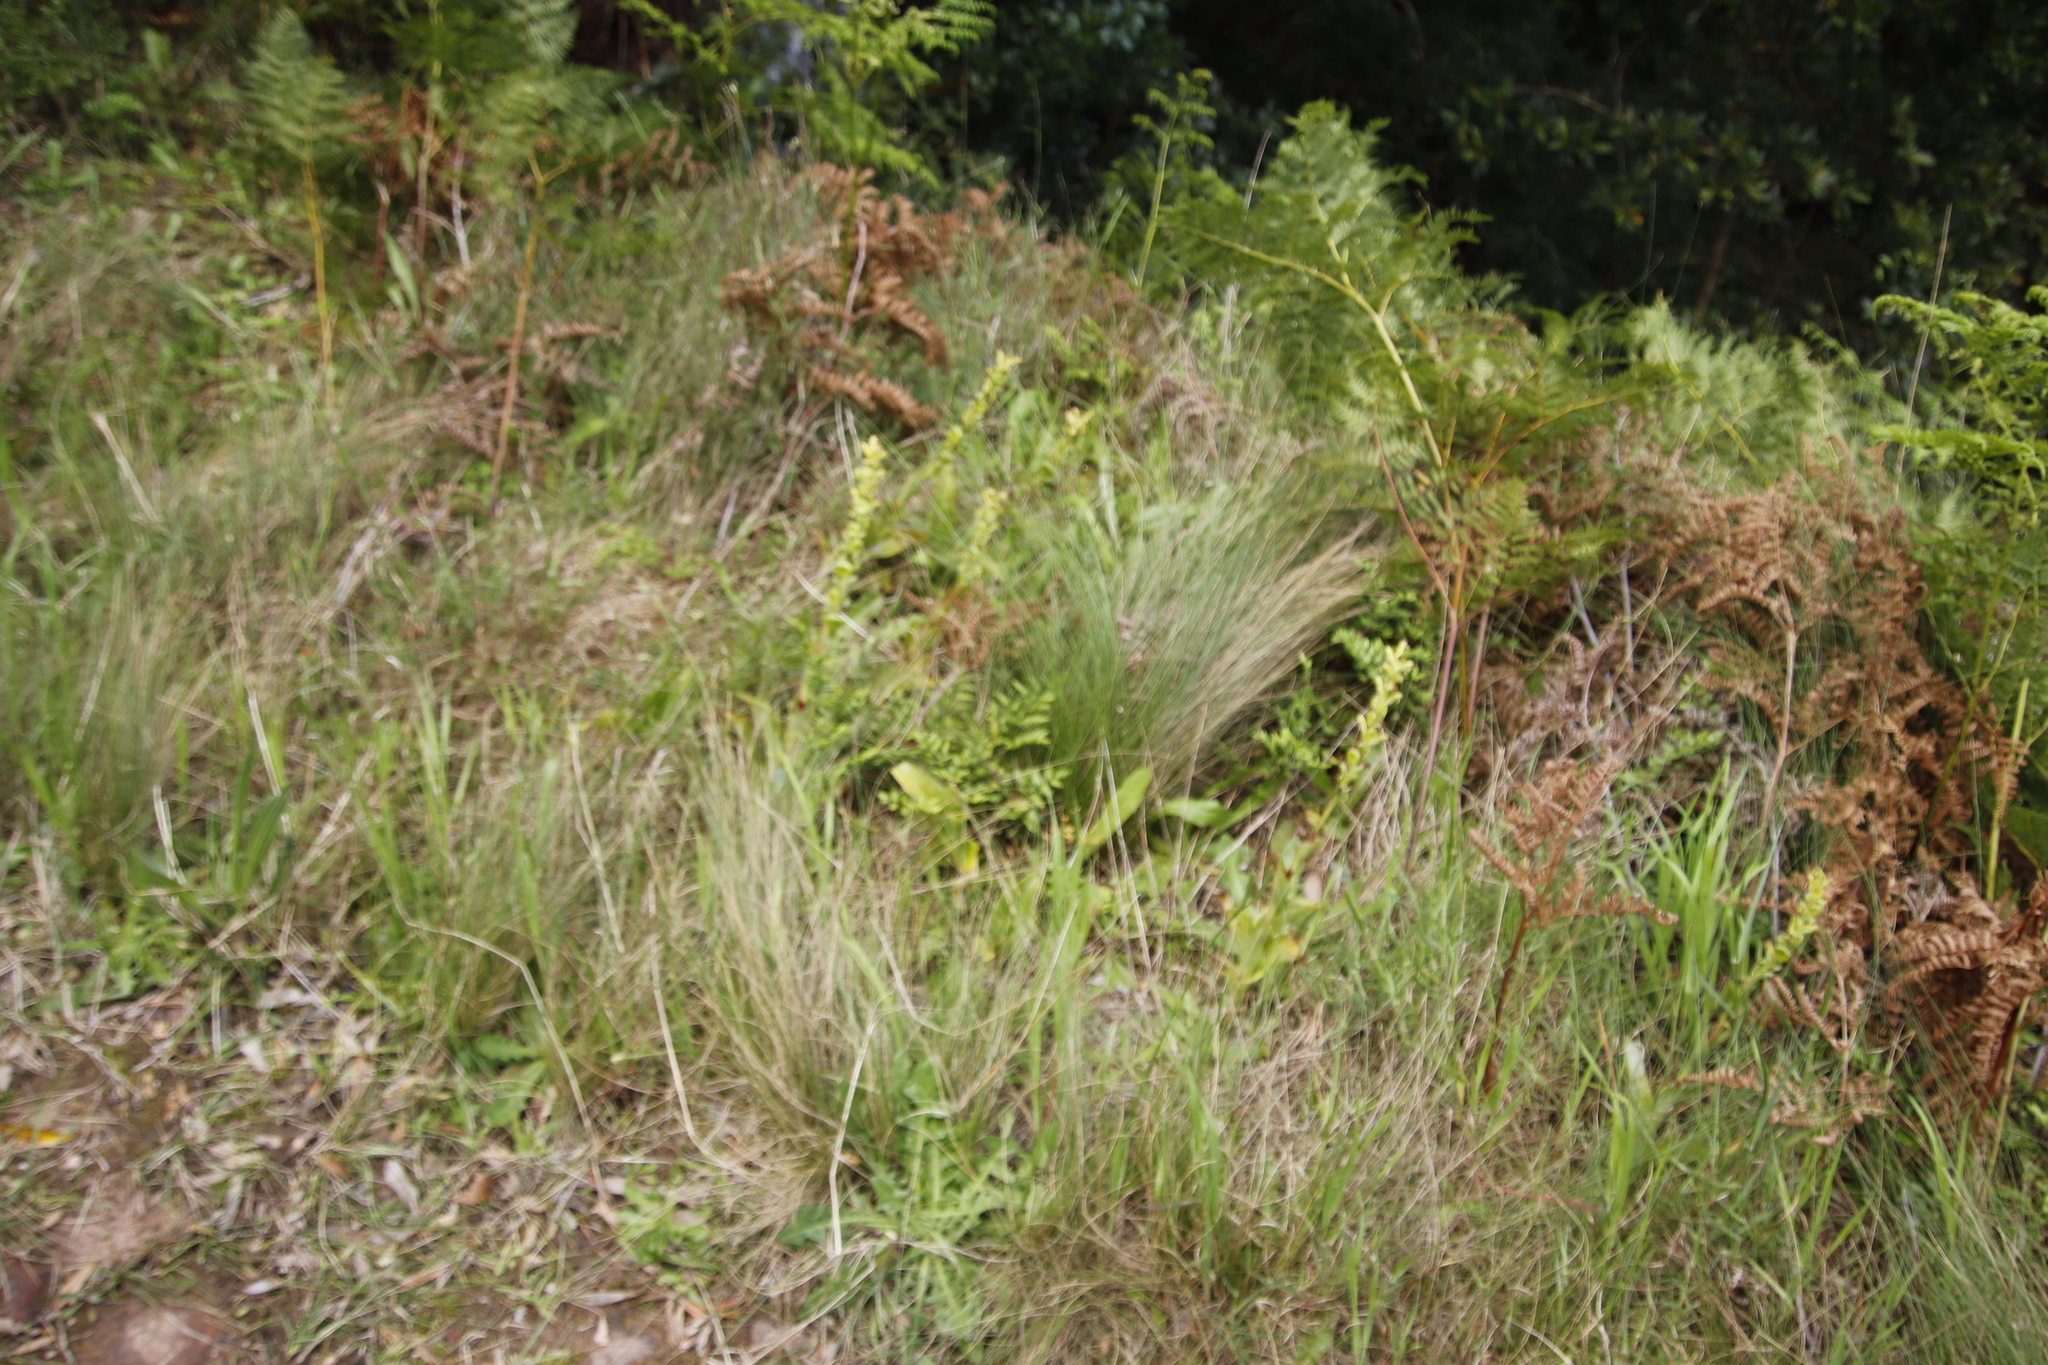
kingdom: Plantae
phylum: Tracheophyta
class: Liliopsida
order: Asparagales
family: Orchidaceae
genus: Satyrium
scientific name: Satyrium odorum
